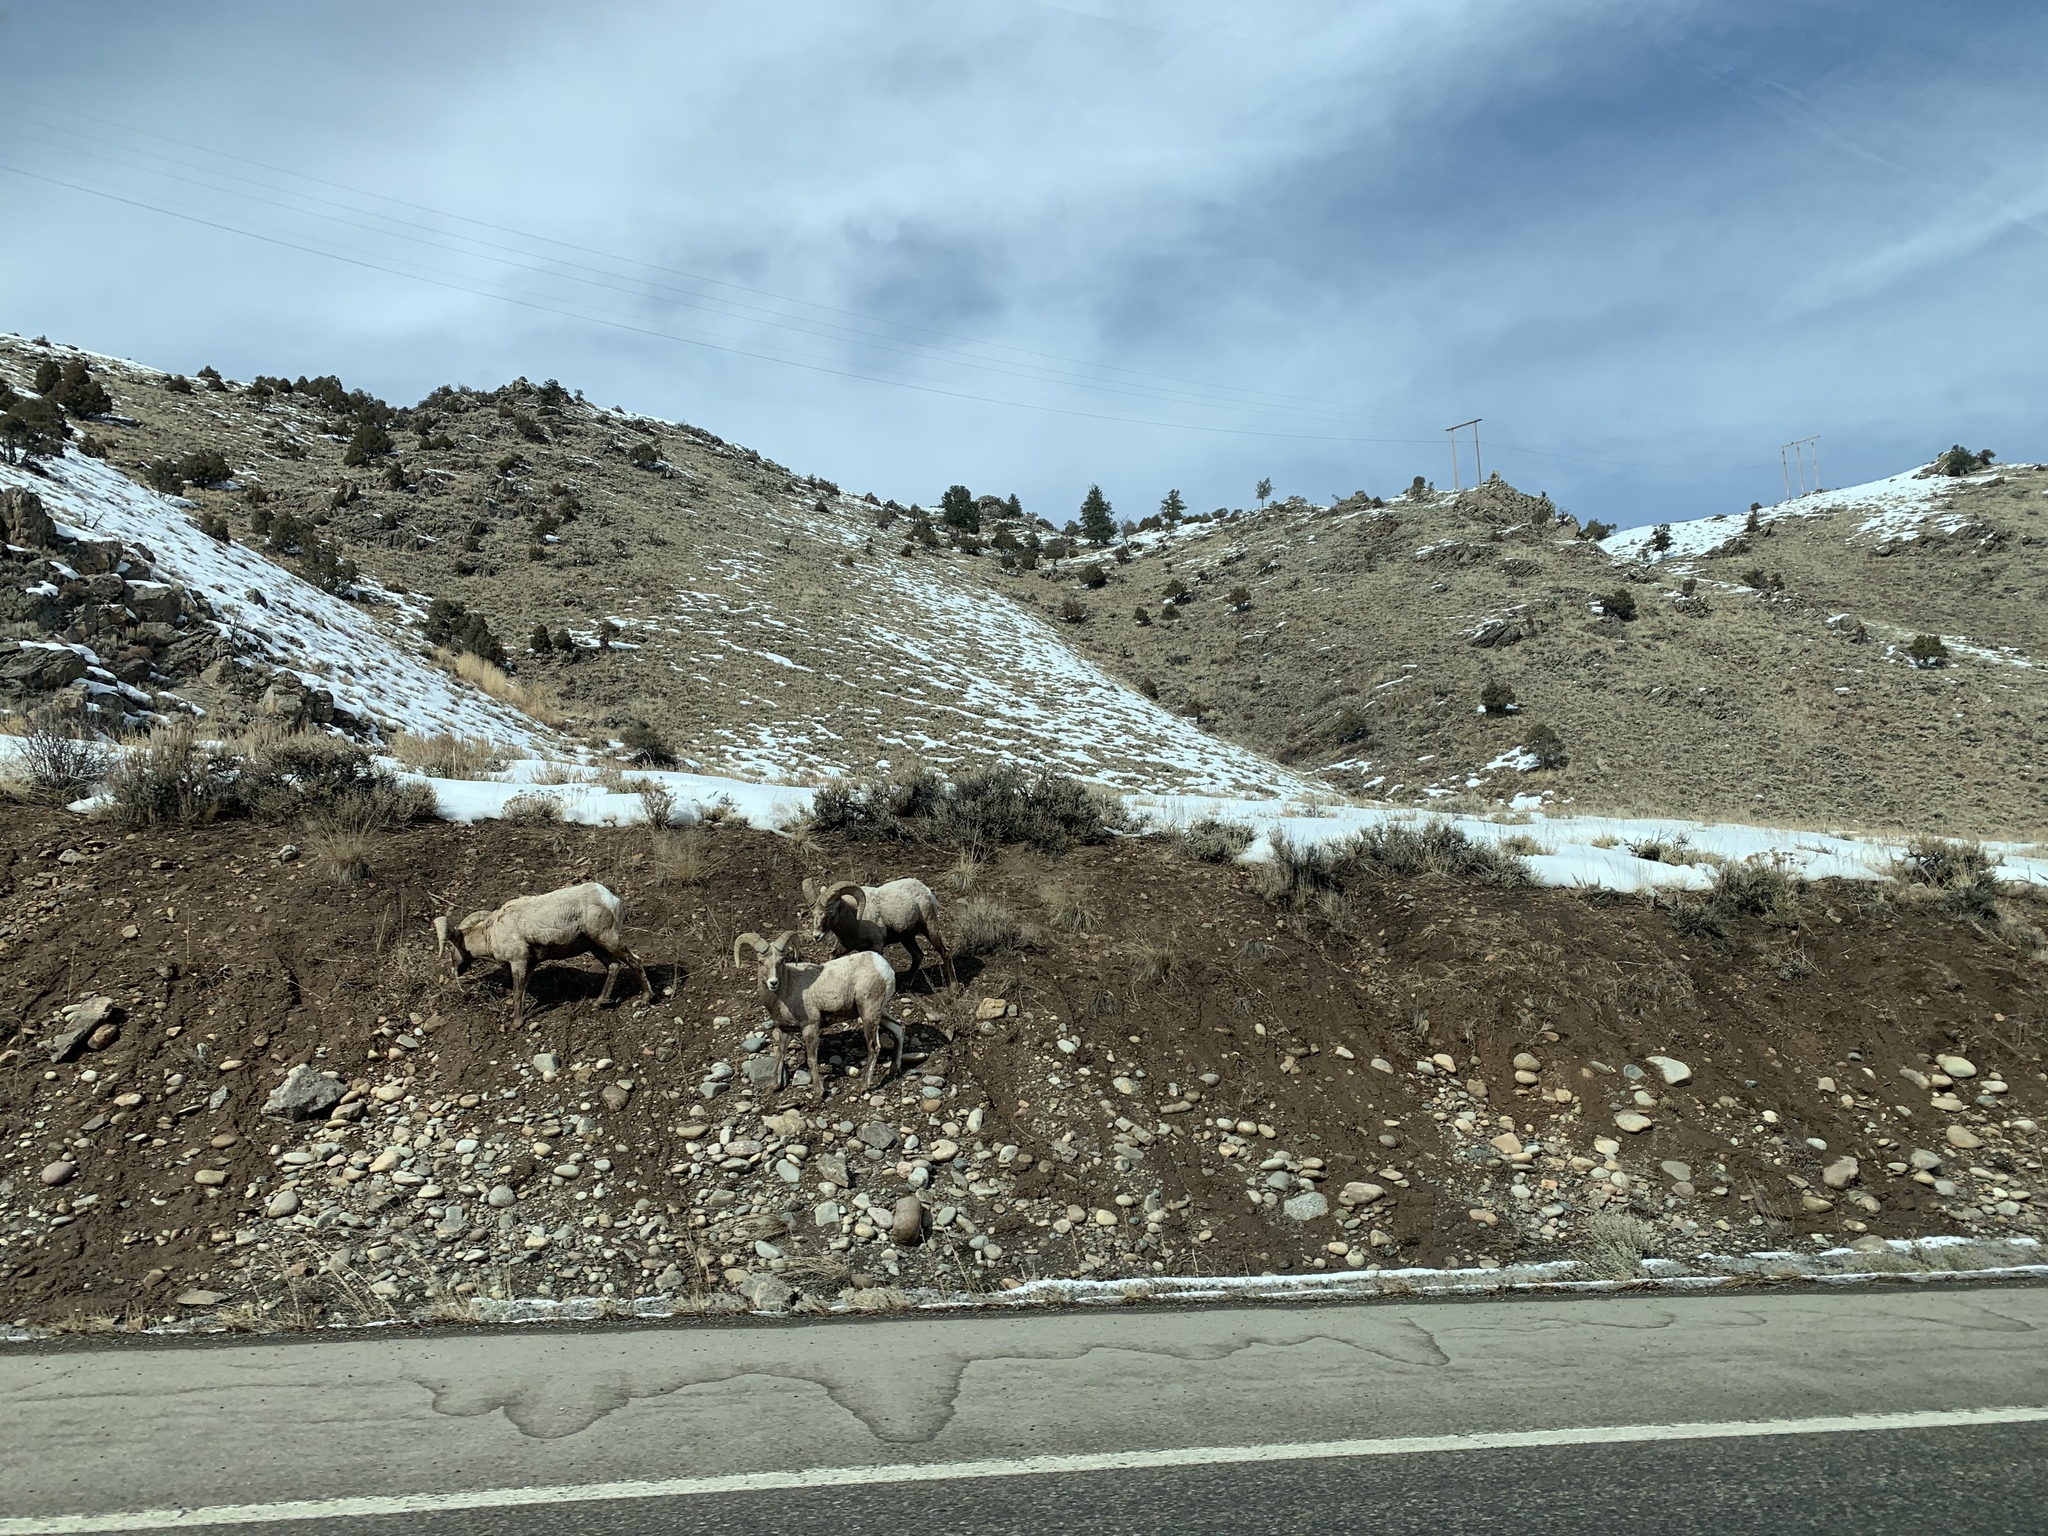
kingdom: Animalia
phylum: Chordata
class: Mammalia
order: Artiodactyla
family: Bovidae
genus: Ovis
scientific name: Ovis canadensis
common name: Bighorn sheep
